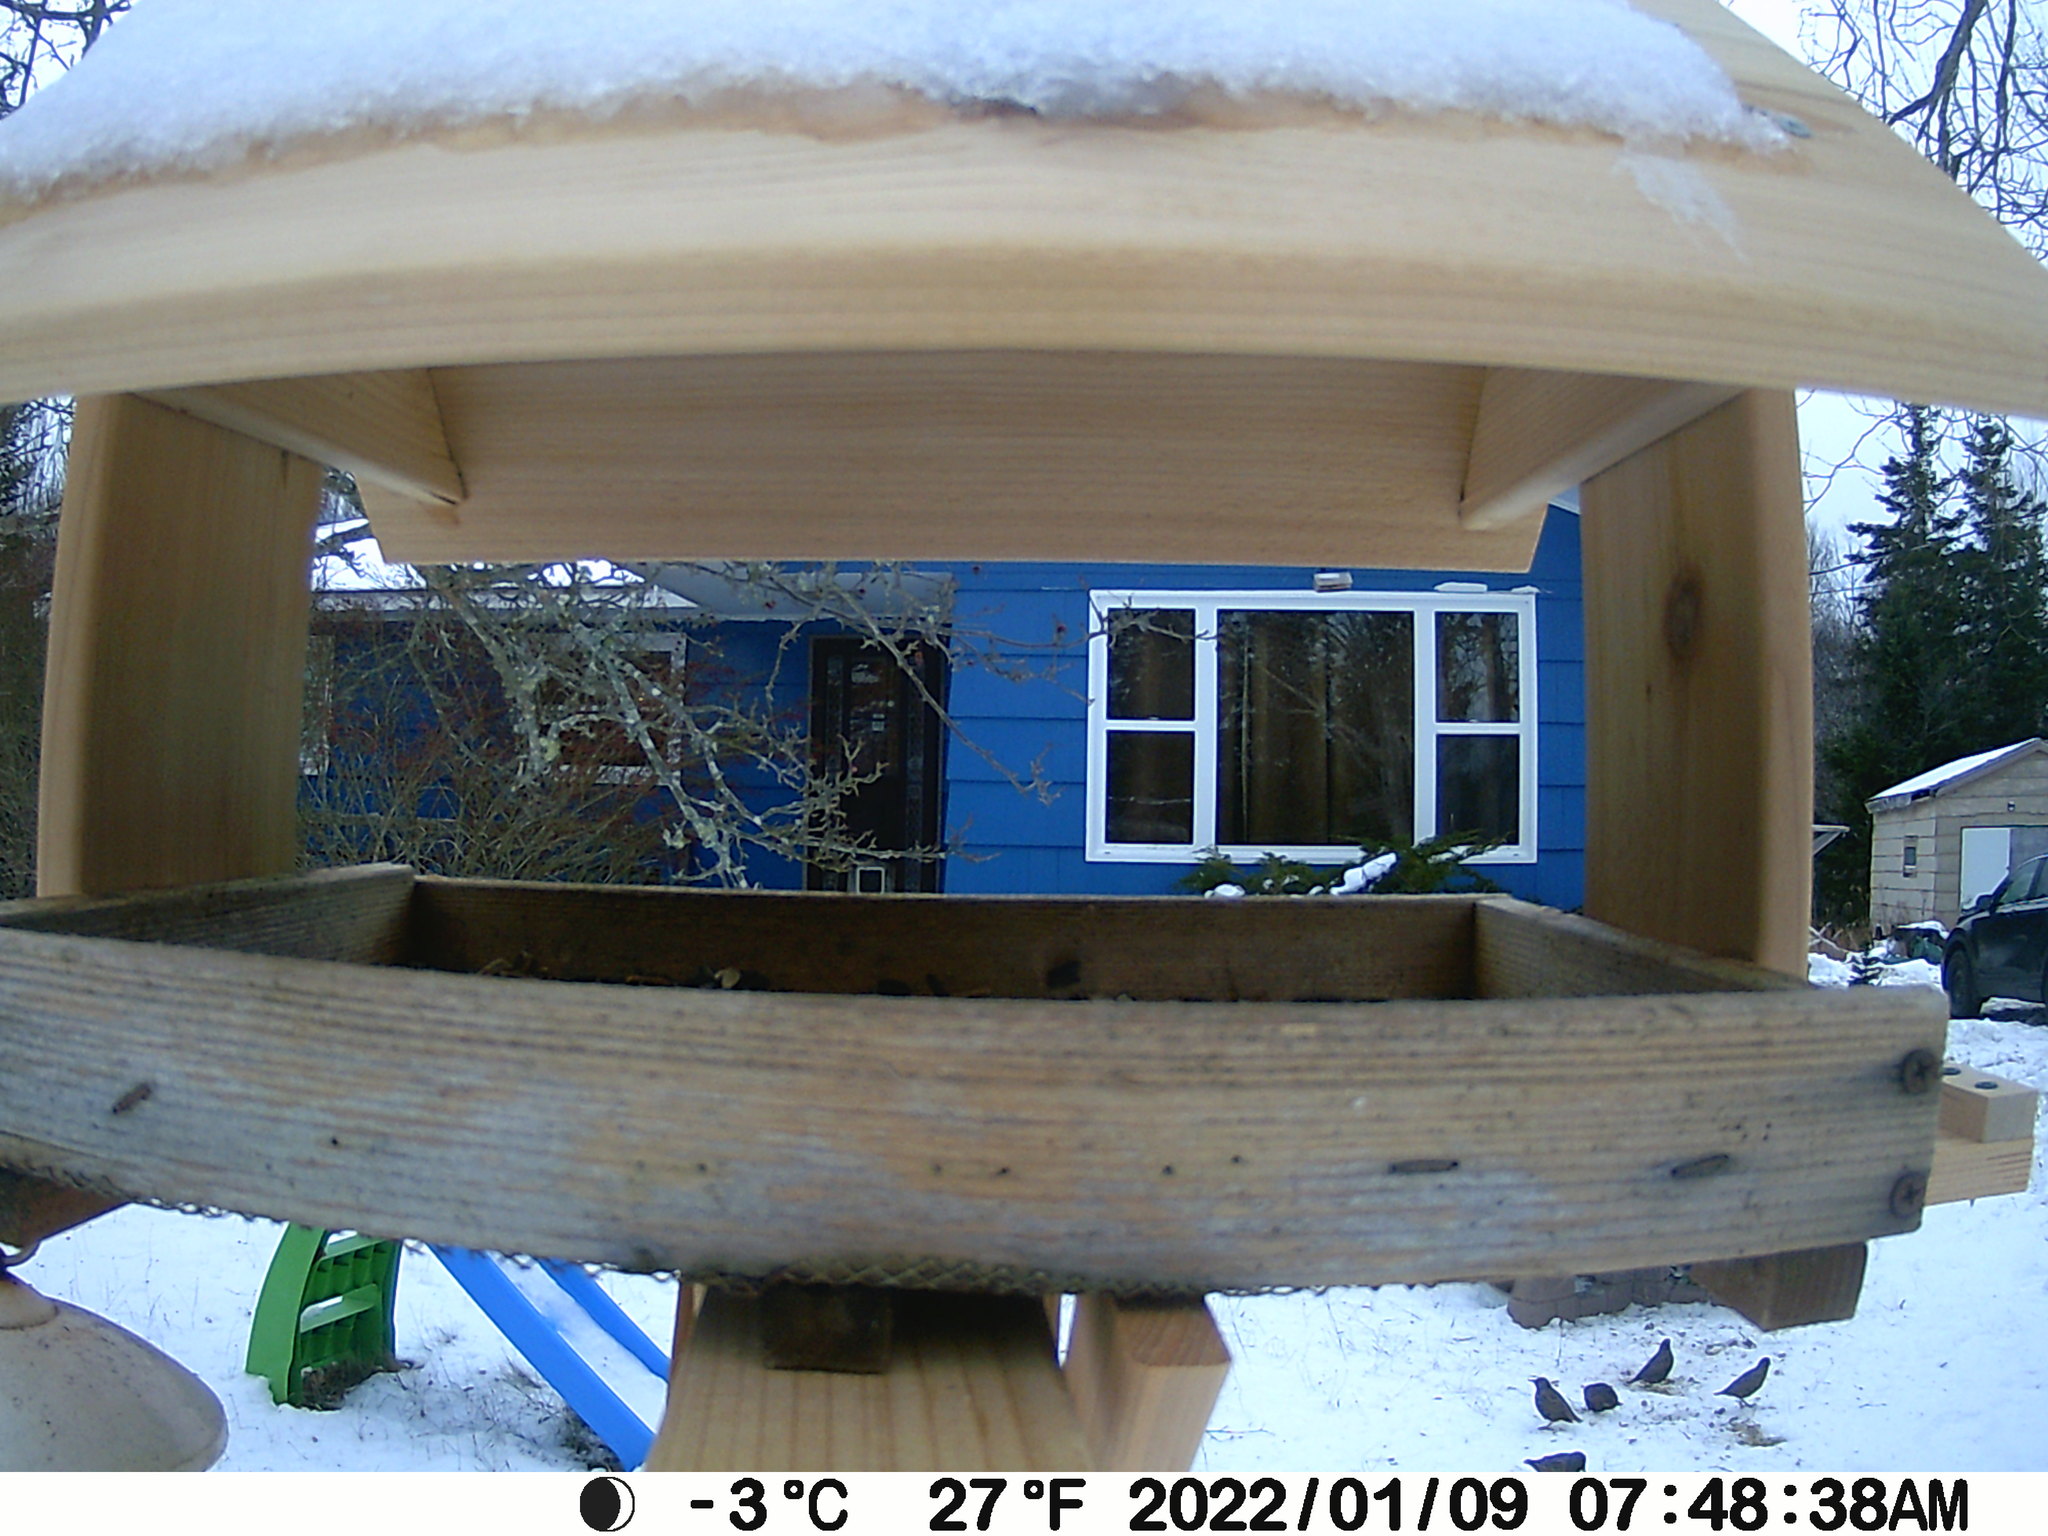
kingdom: Animalia
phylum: Chordata
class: Aves
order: Passeriformes
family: Sturnidae
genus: Sturnus
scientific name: Sturnus vulgaris
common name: Common starling
